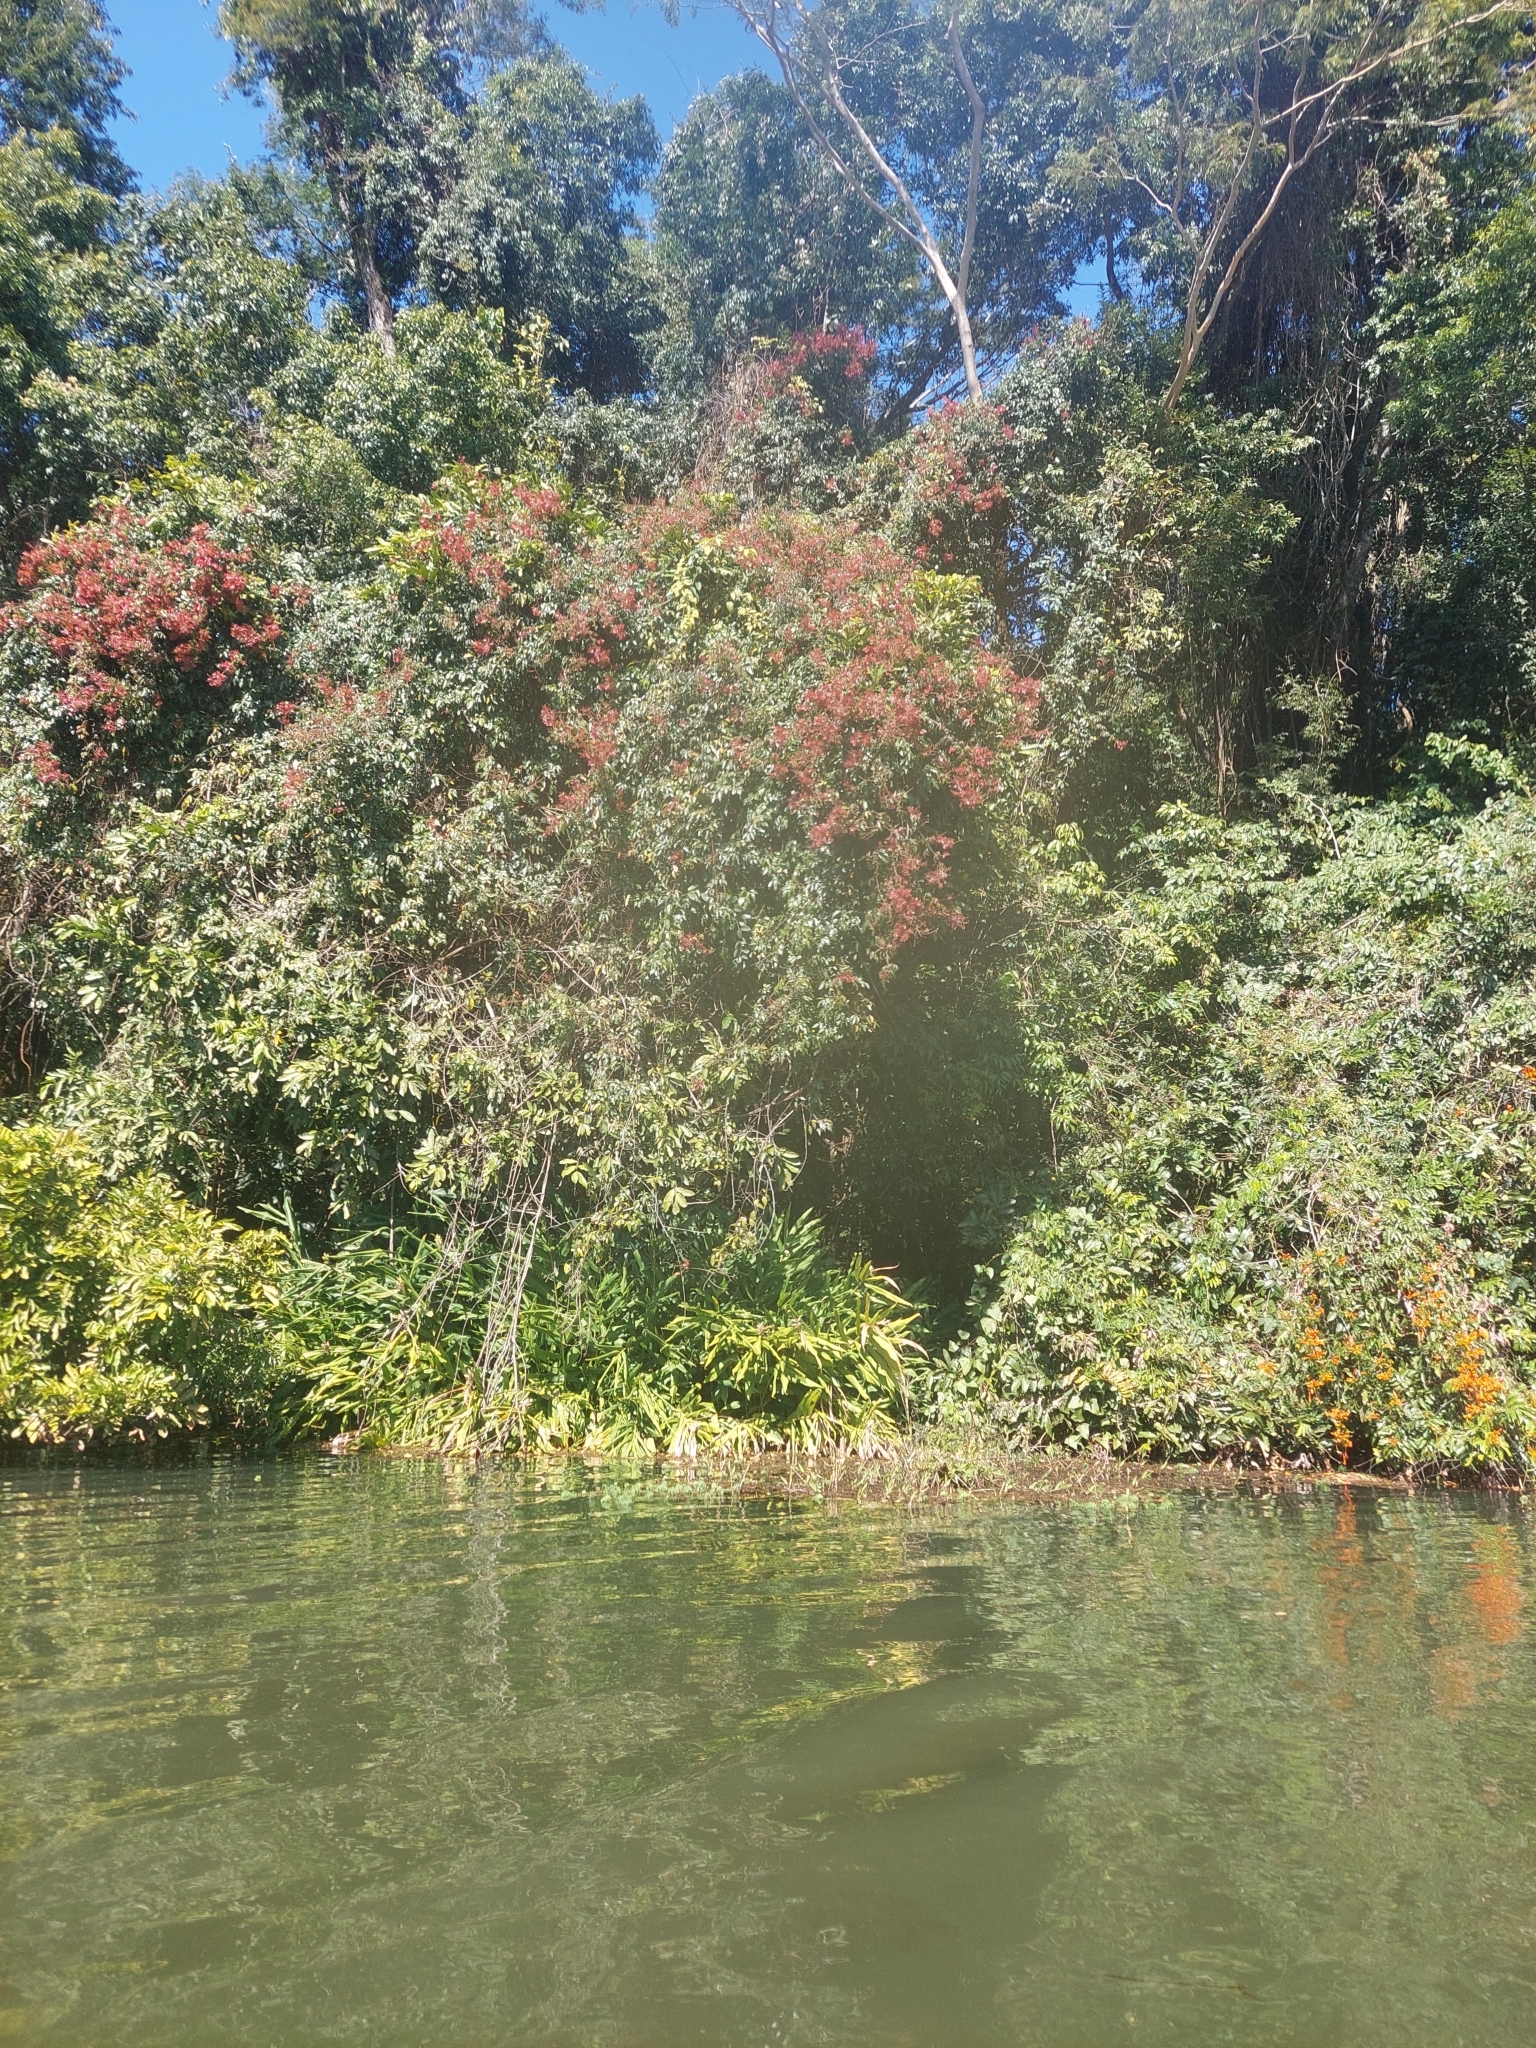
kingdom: Plantae
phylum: Tracheophyta
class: Liliopsida
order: Zingiberales
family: Zingiberaceae
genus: Hedychium
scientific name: Hedychium coronarium
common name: White garland-lily
